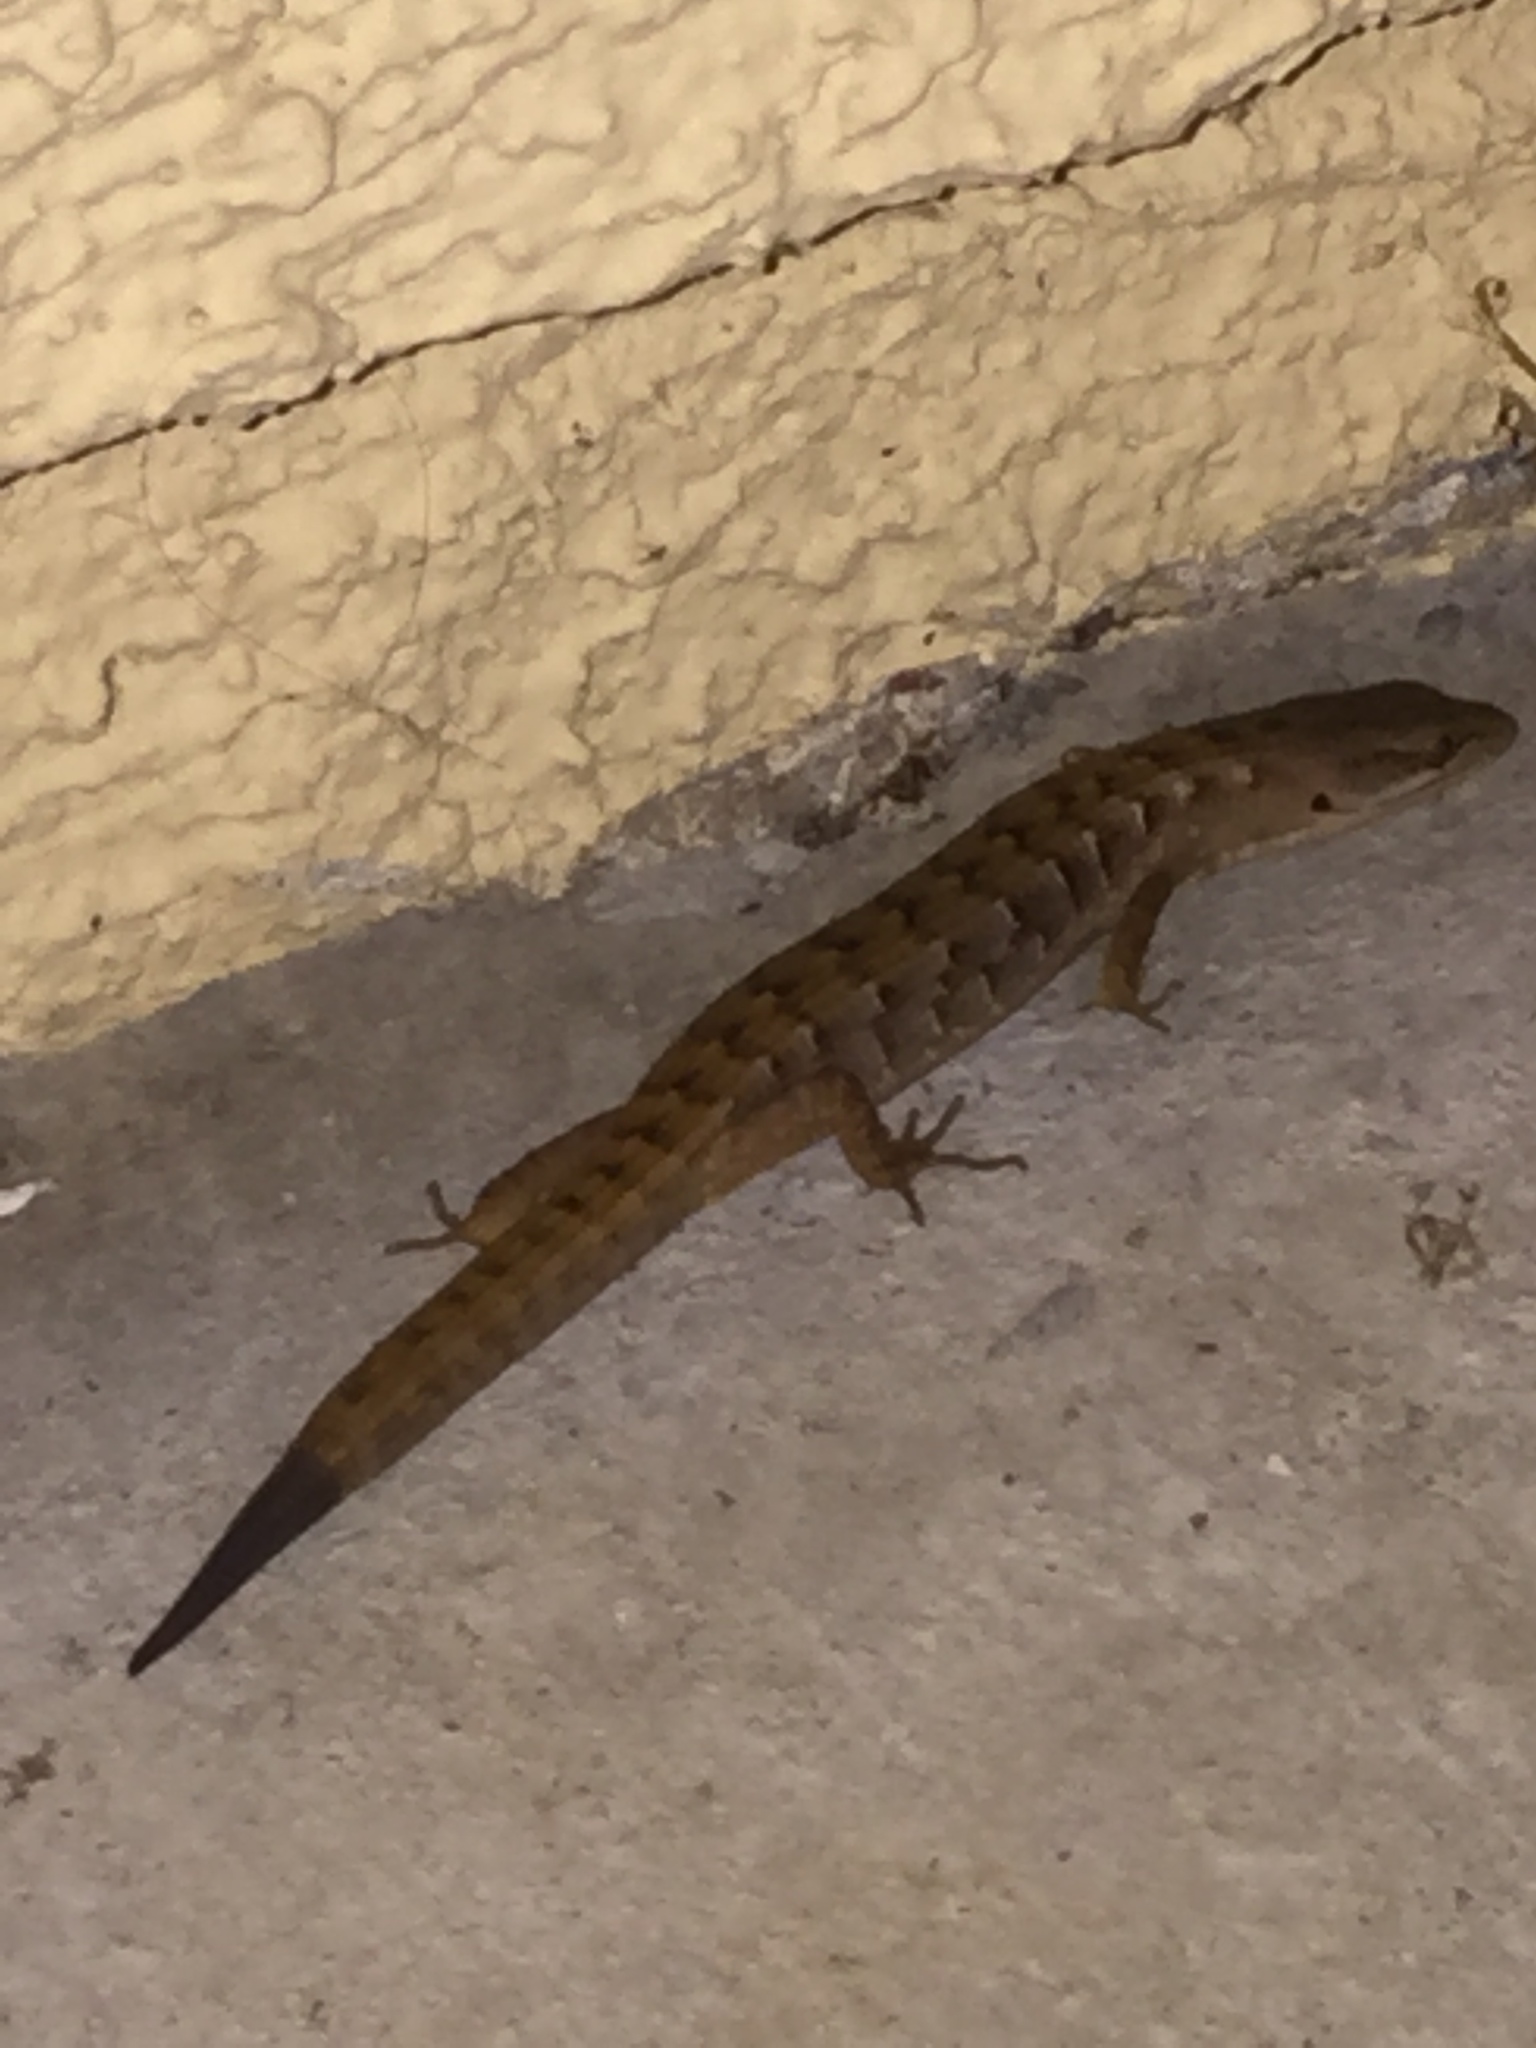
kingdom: Animalia
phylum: Chordata
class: Squamata
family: Anguidae
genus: Elgaria
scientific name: Elgaria multicarinata
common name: Southern alligator lizard
